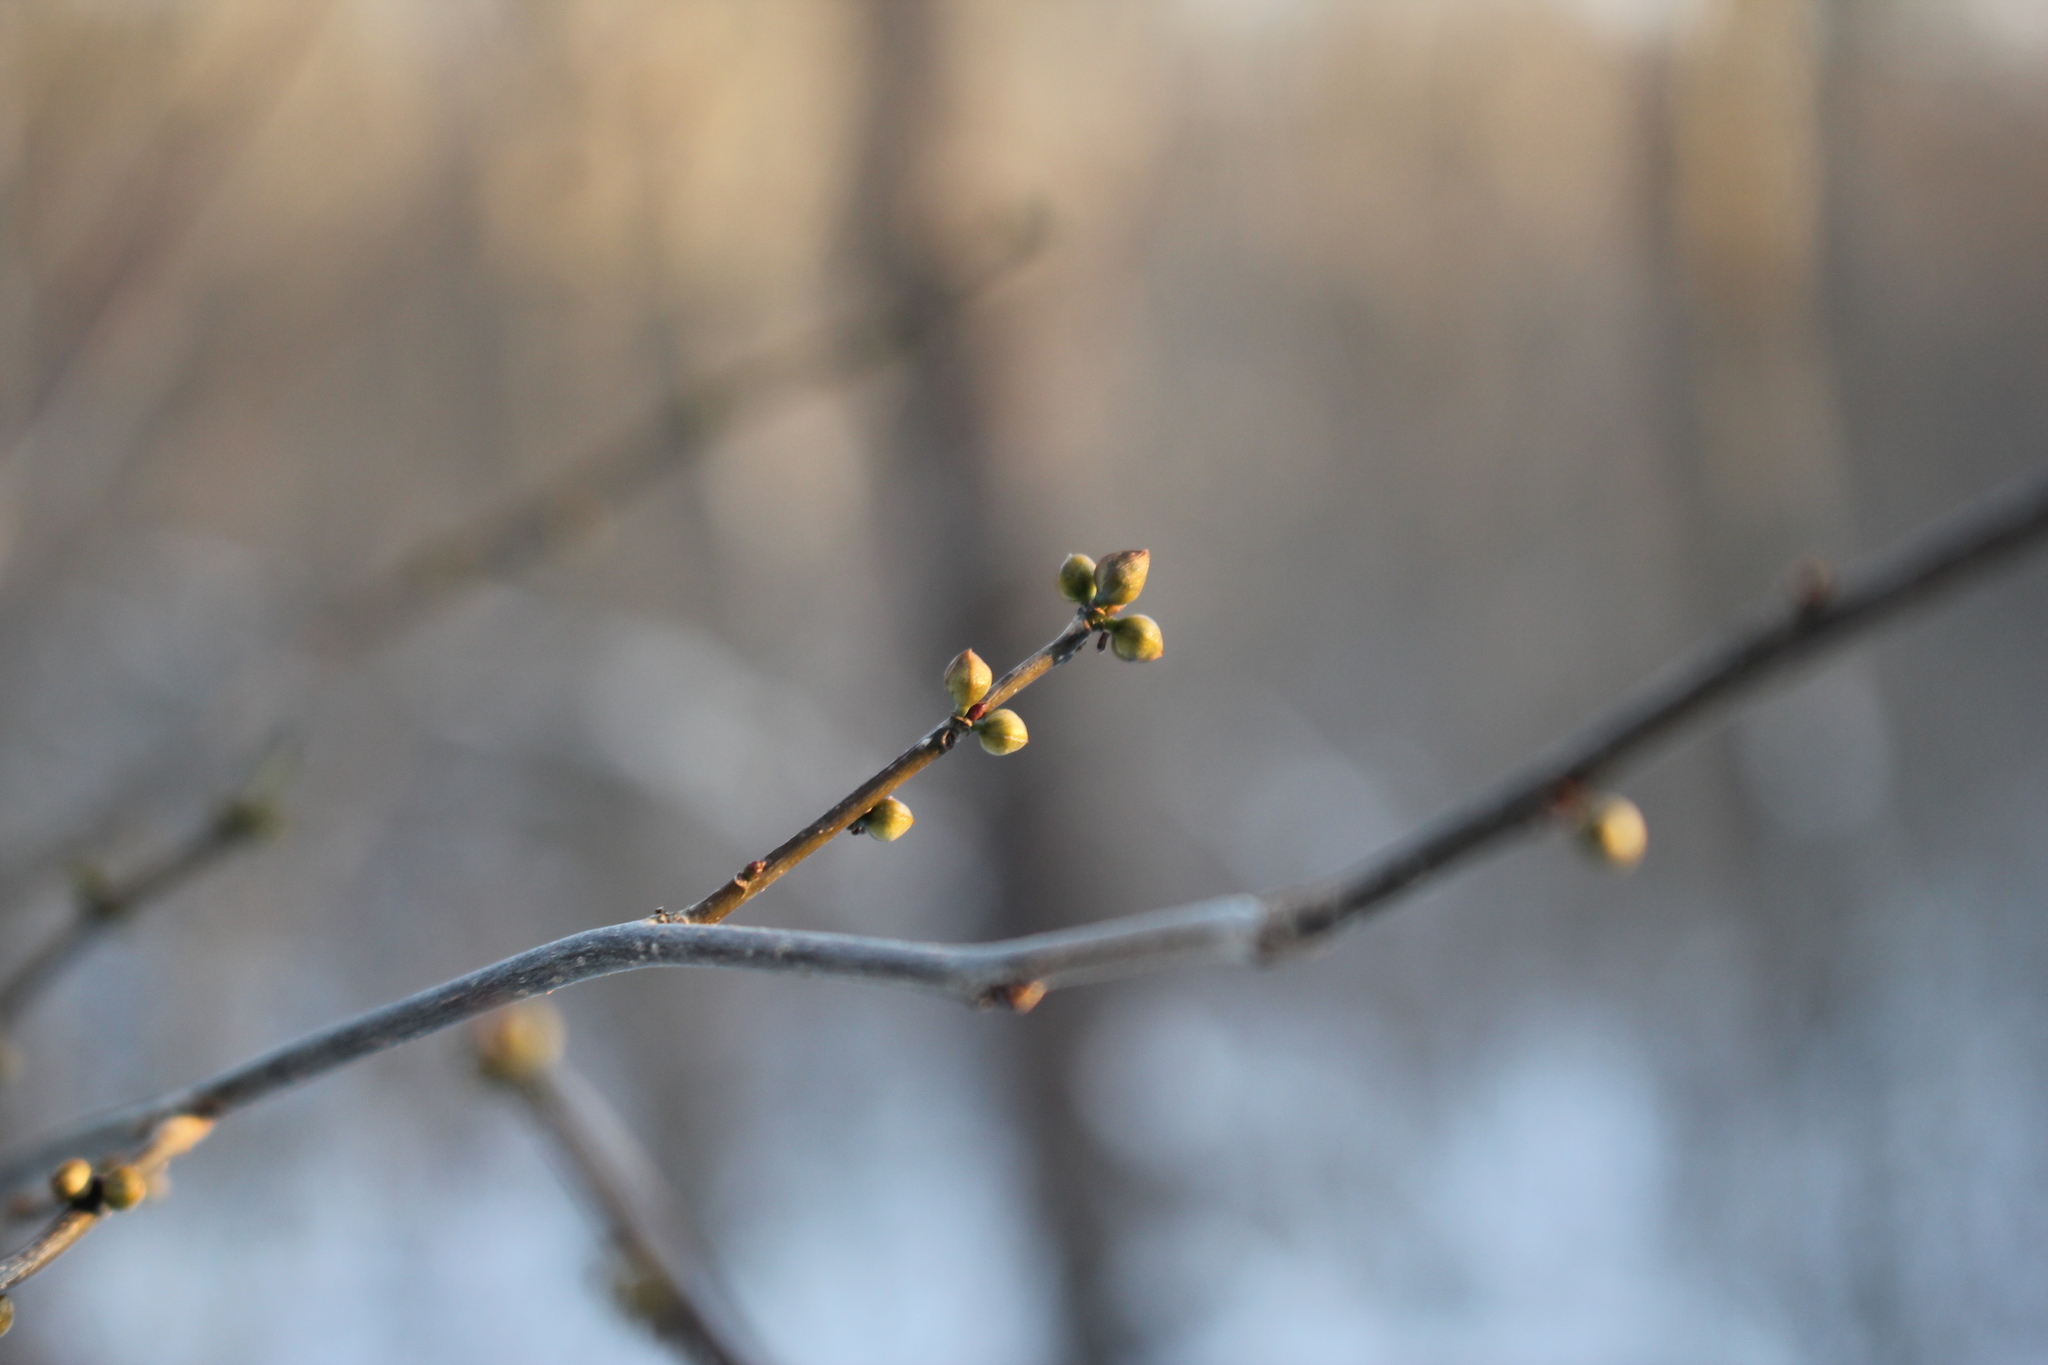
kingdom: Plantae
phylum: Tracheophyta
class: Magnoliopsida
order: Laurales
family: Lauraceae
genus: Lindera
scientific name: Lindera benzoin
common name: Spicebush
